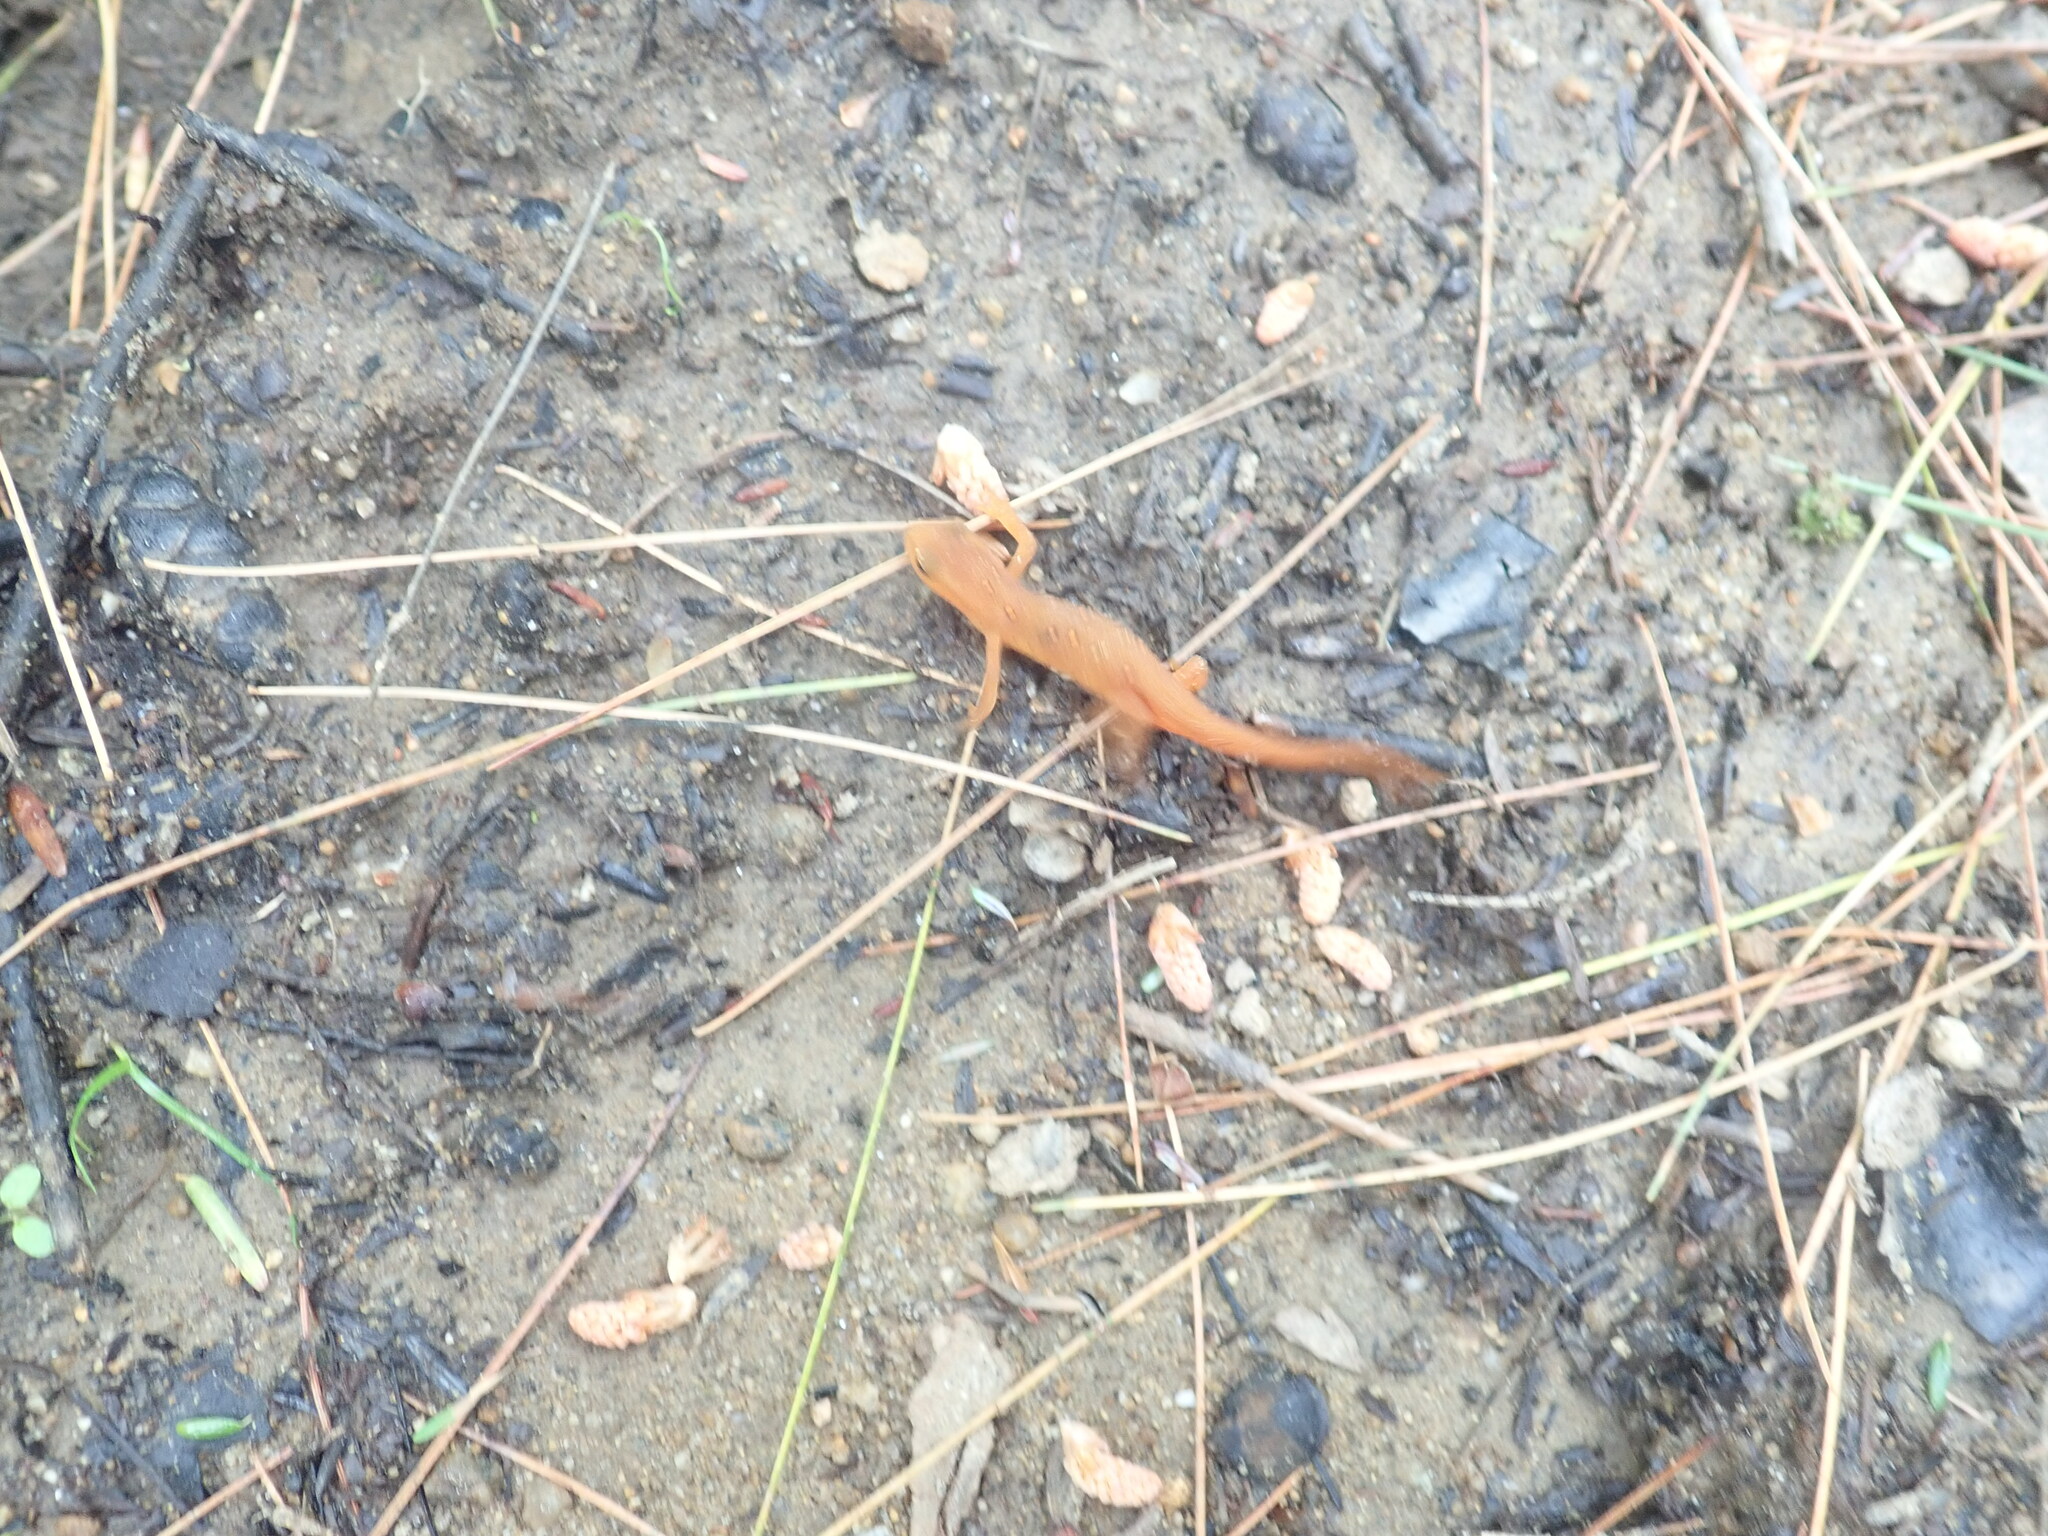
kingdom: Animalia
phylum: Chordata
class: Amphibia
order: Caudata
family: Salamandridae
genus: Notophthalmus
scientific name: Notophthalmus viridescens
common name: Eastern newt
